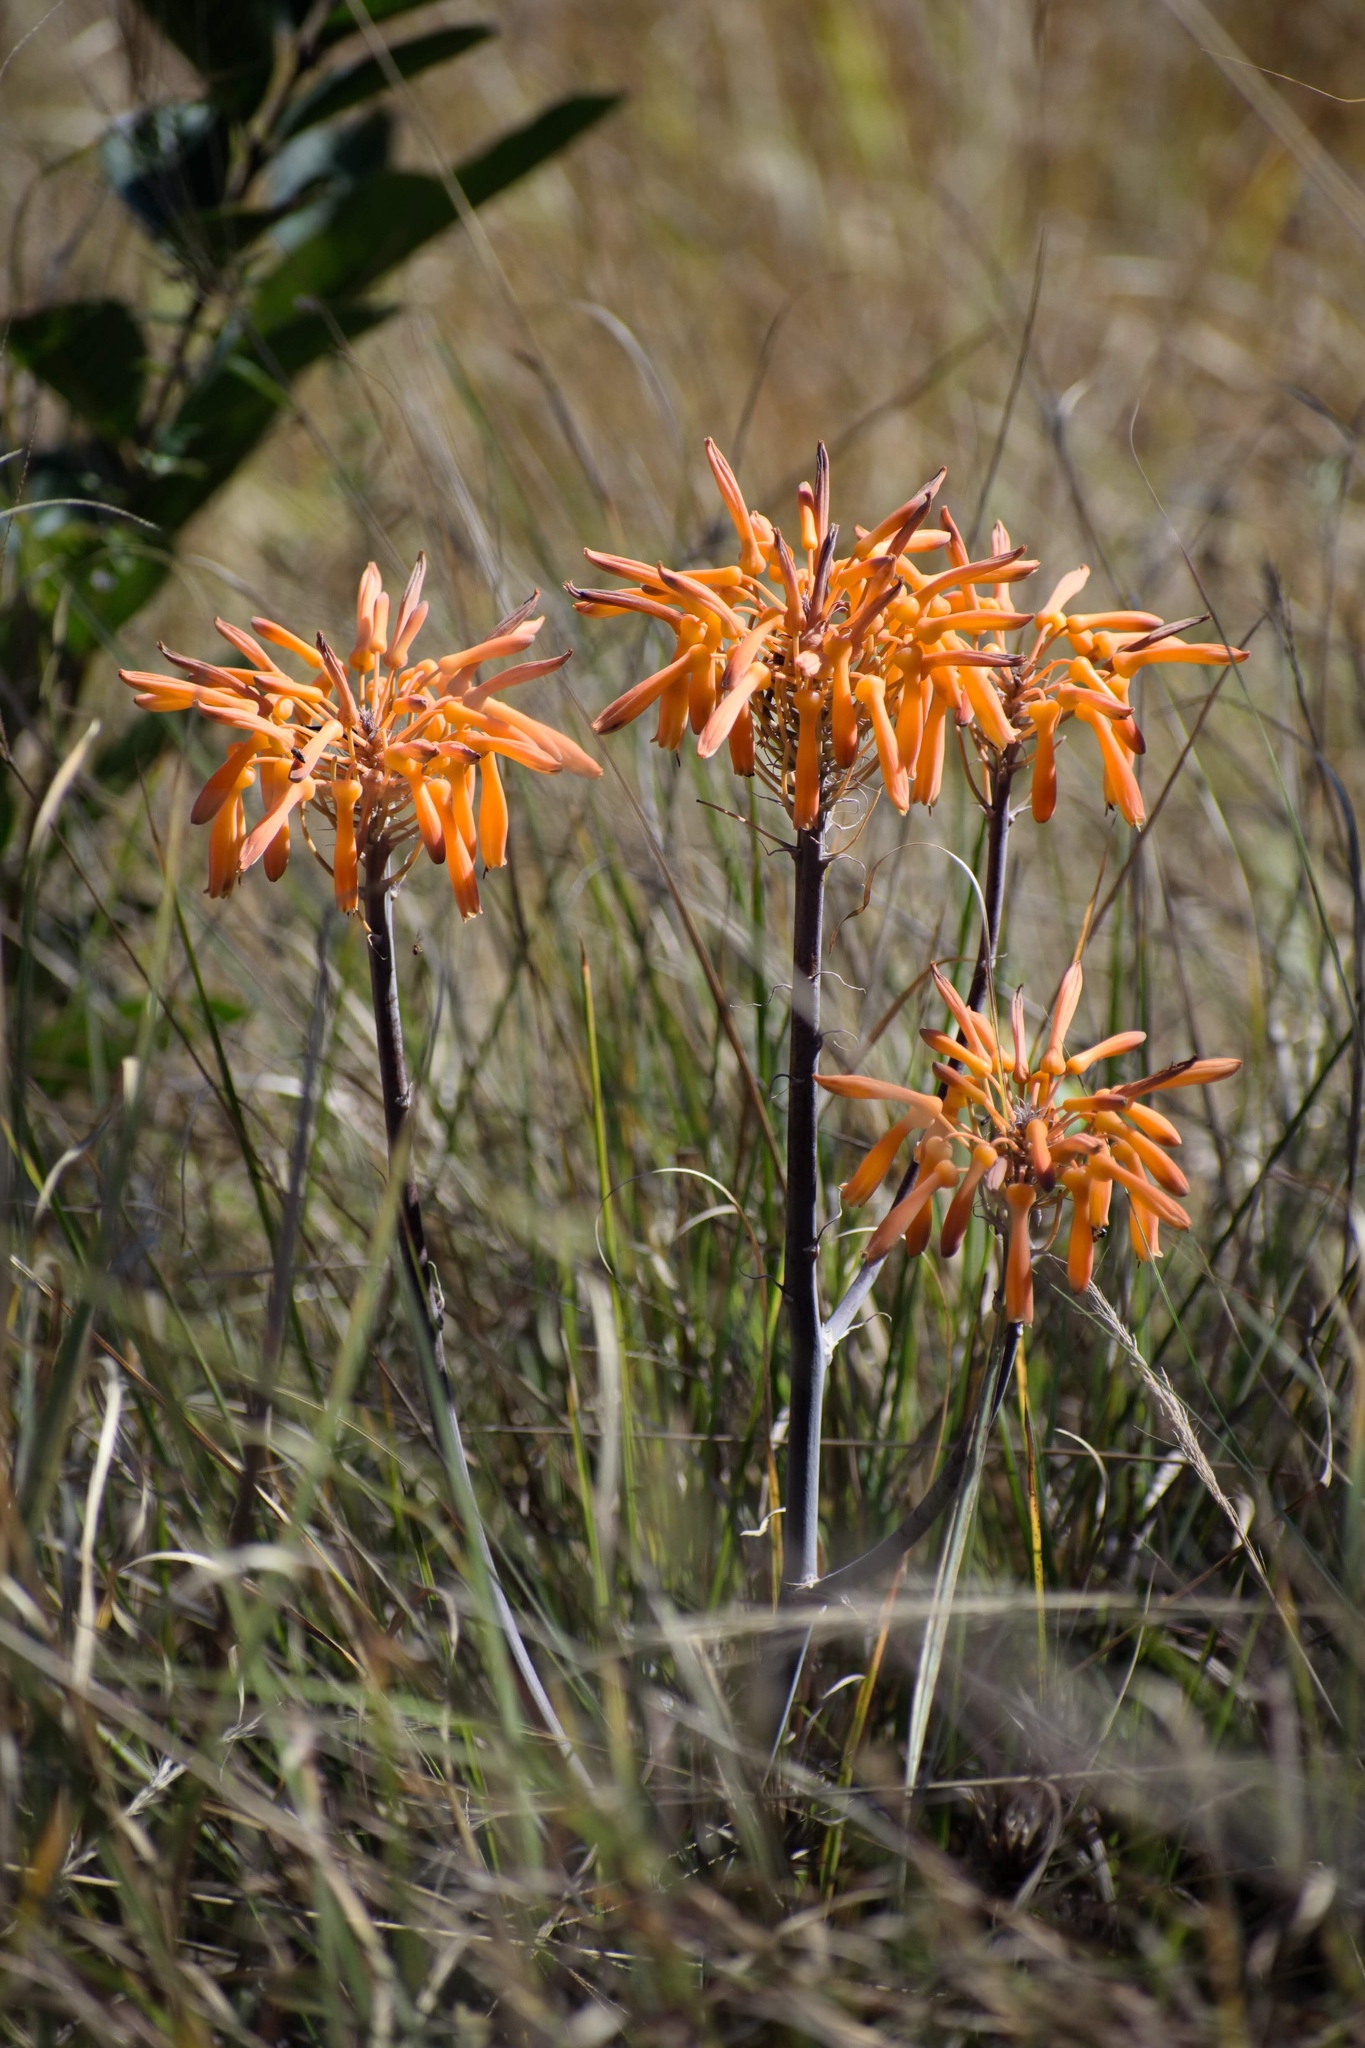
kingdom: Plantae
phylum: Tracheophyta
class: Liliopsida
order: Asparagales
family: Asphodelaceae
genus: Aloe
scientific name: Aloe maculata
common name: Broadleaf aloe
